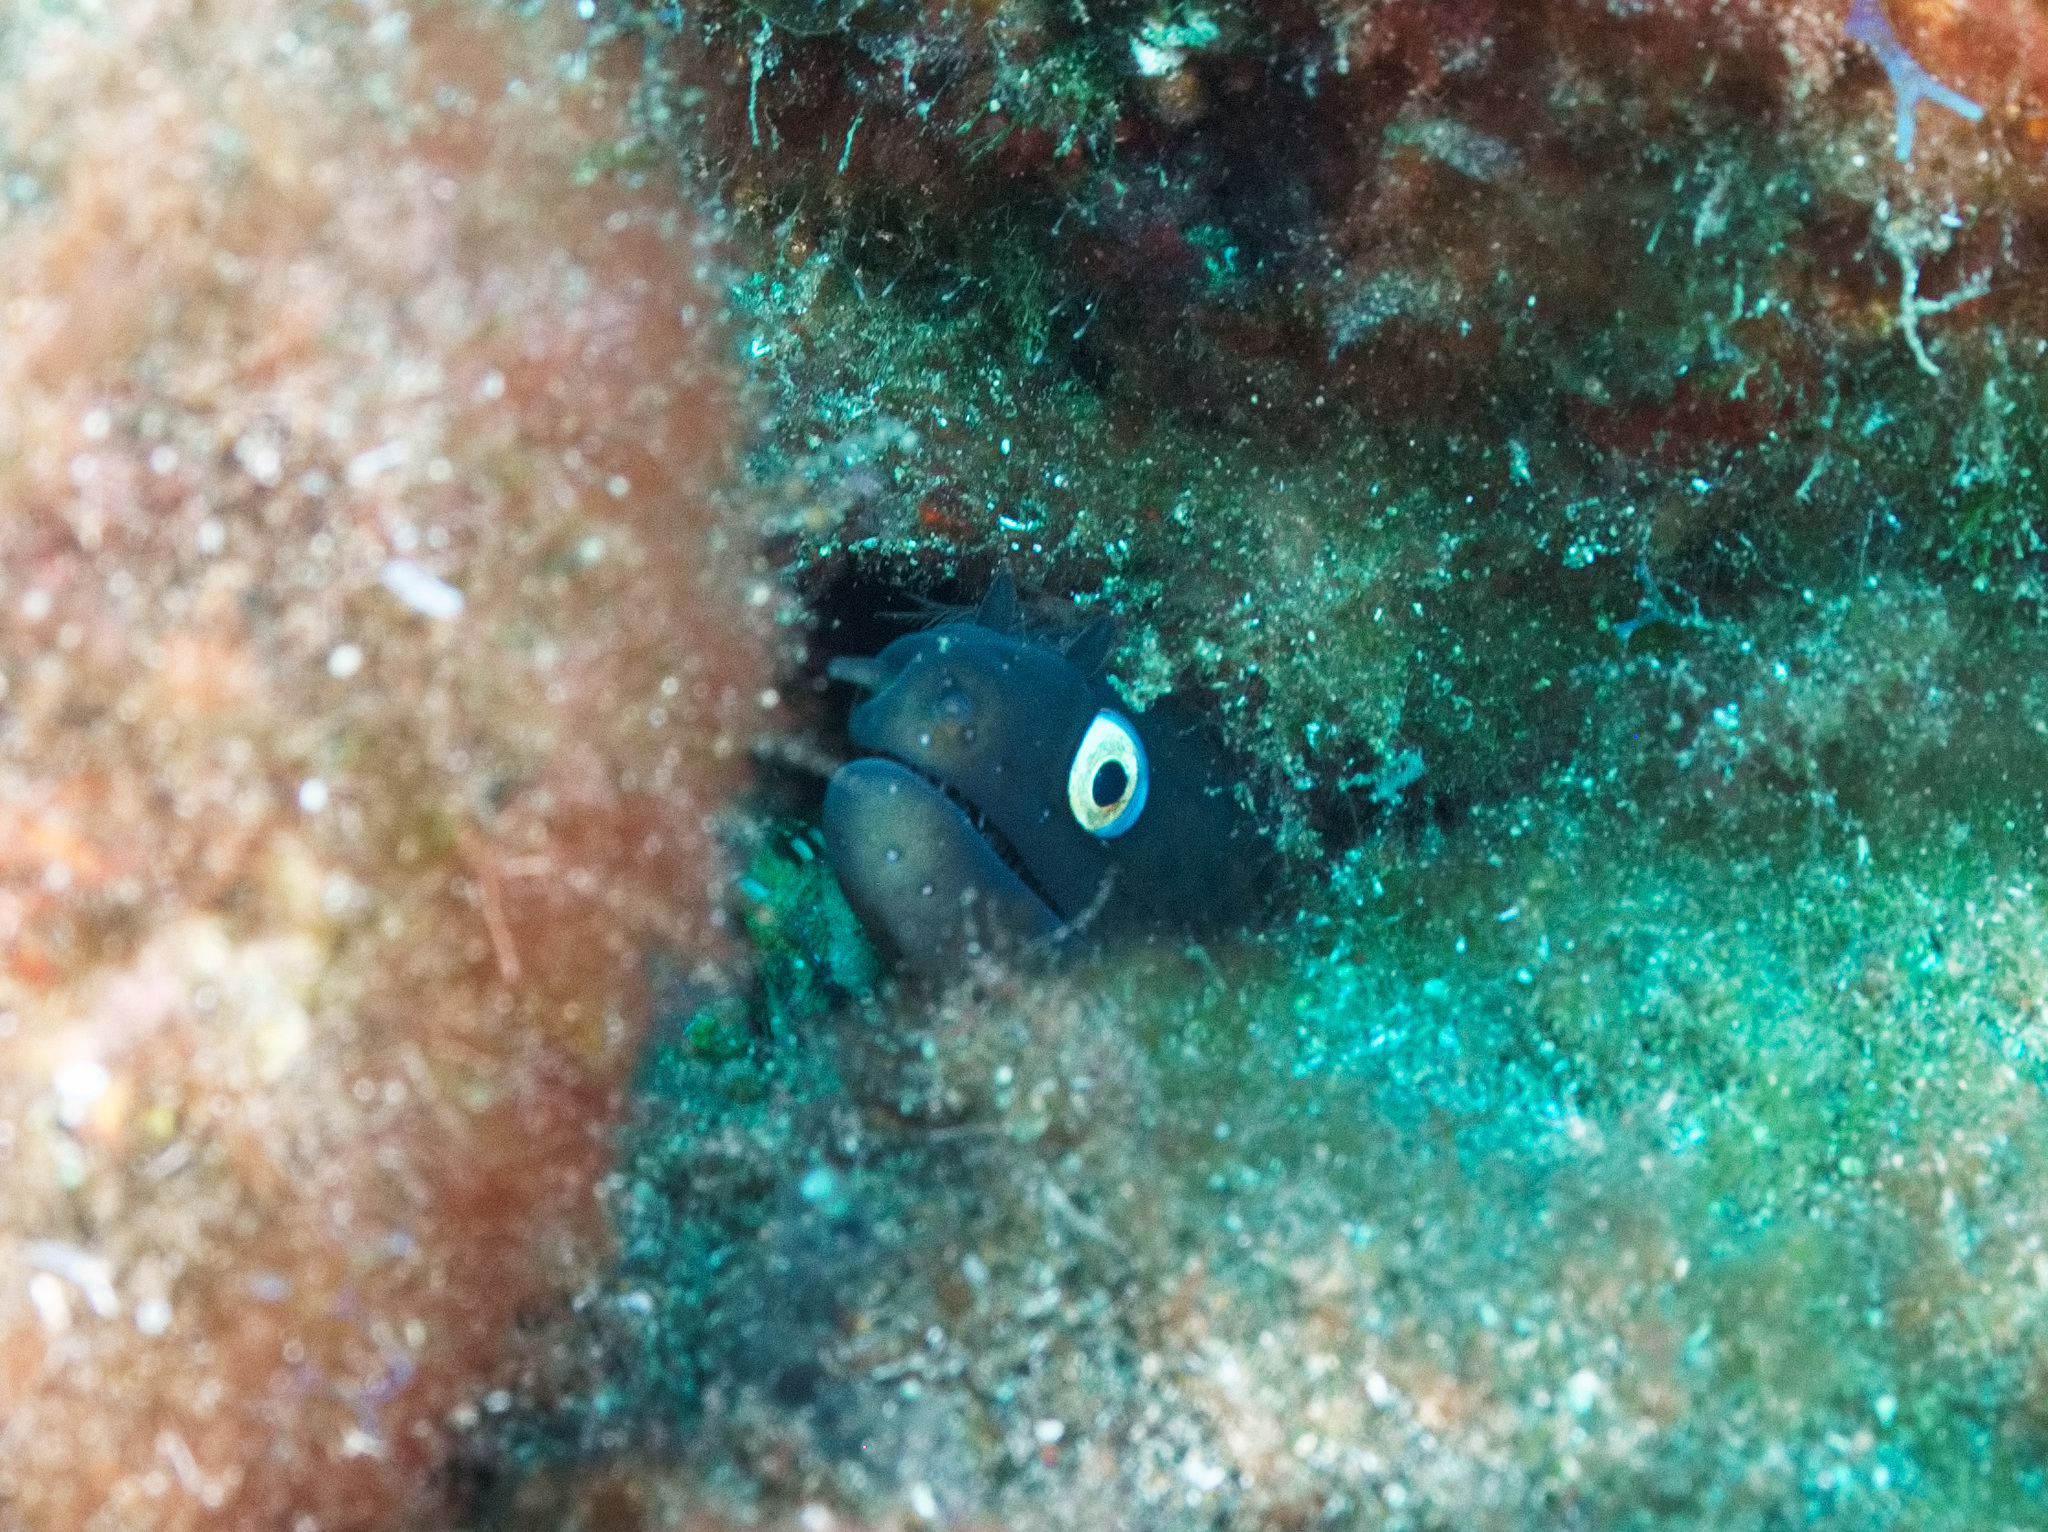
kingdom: Animalia
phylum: Chordata
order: Anguilliformes
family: Muraenidae
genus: Muraena
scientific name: Muraena augusti
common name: Mediterranean moray
